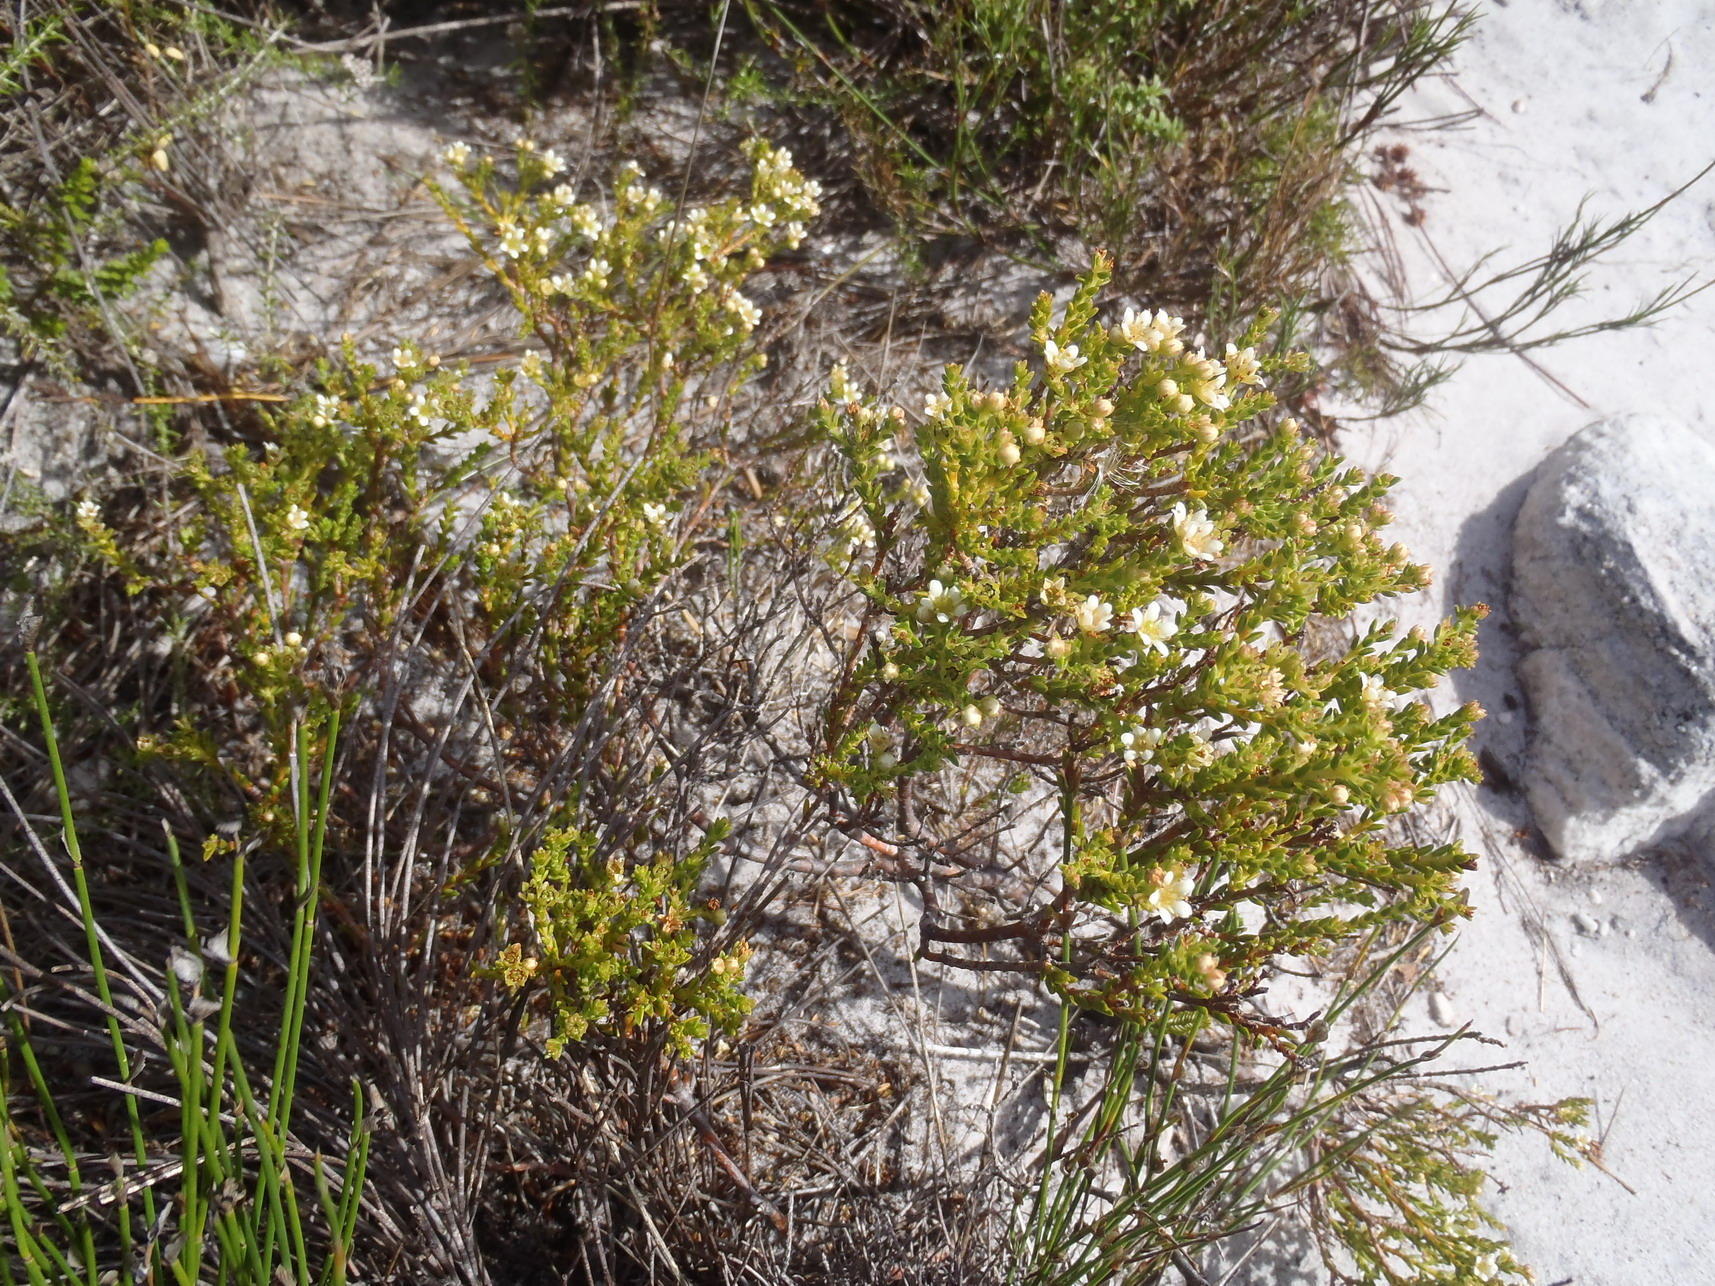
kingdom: Plantae
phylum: Tracheophyta
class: Magnoliopsida
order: Sapindales
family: Rutaceae
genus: Diosma
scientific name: Diosma oppositifolia
